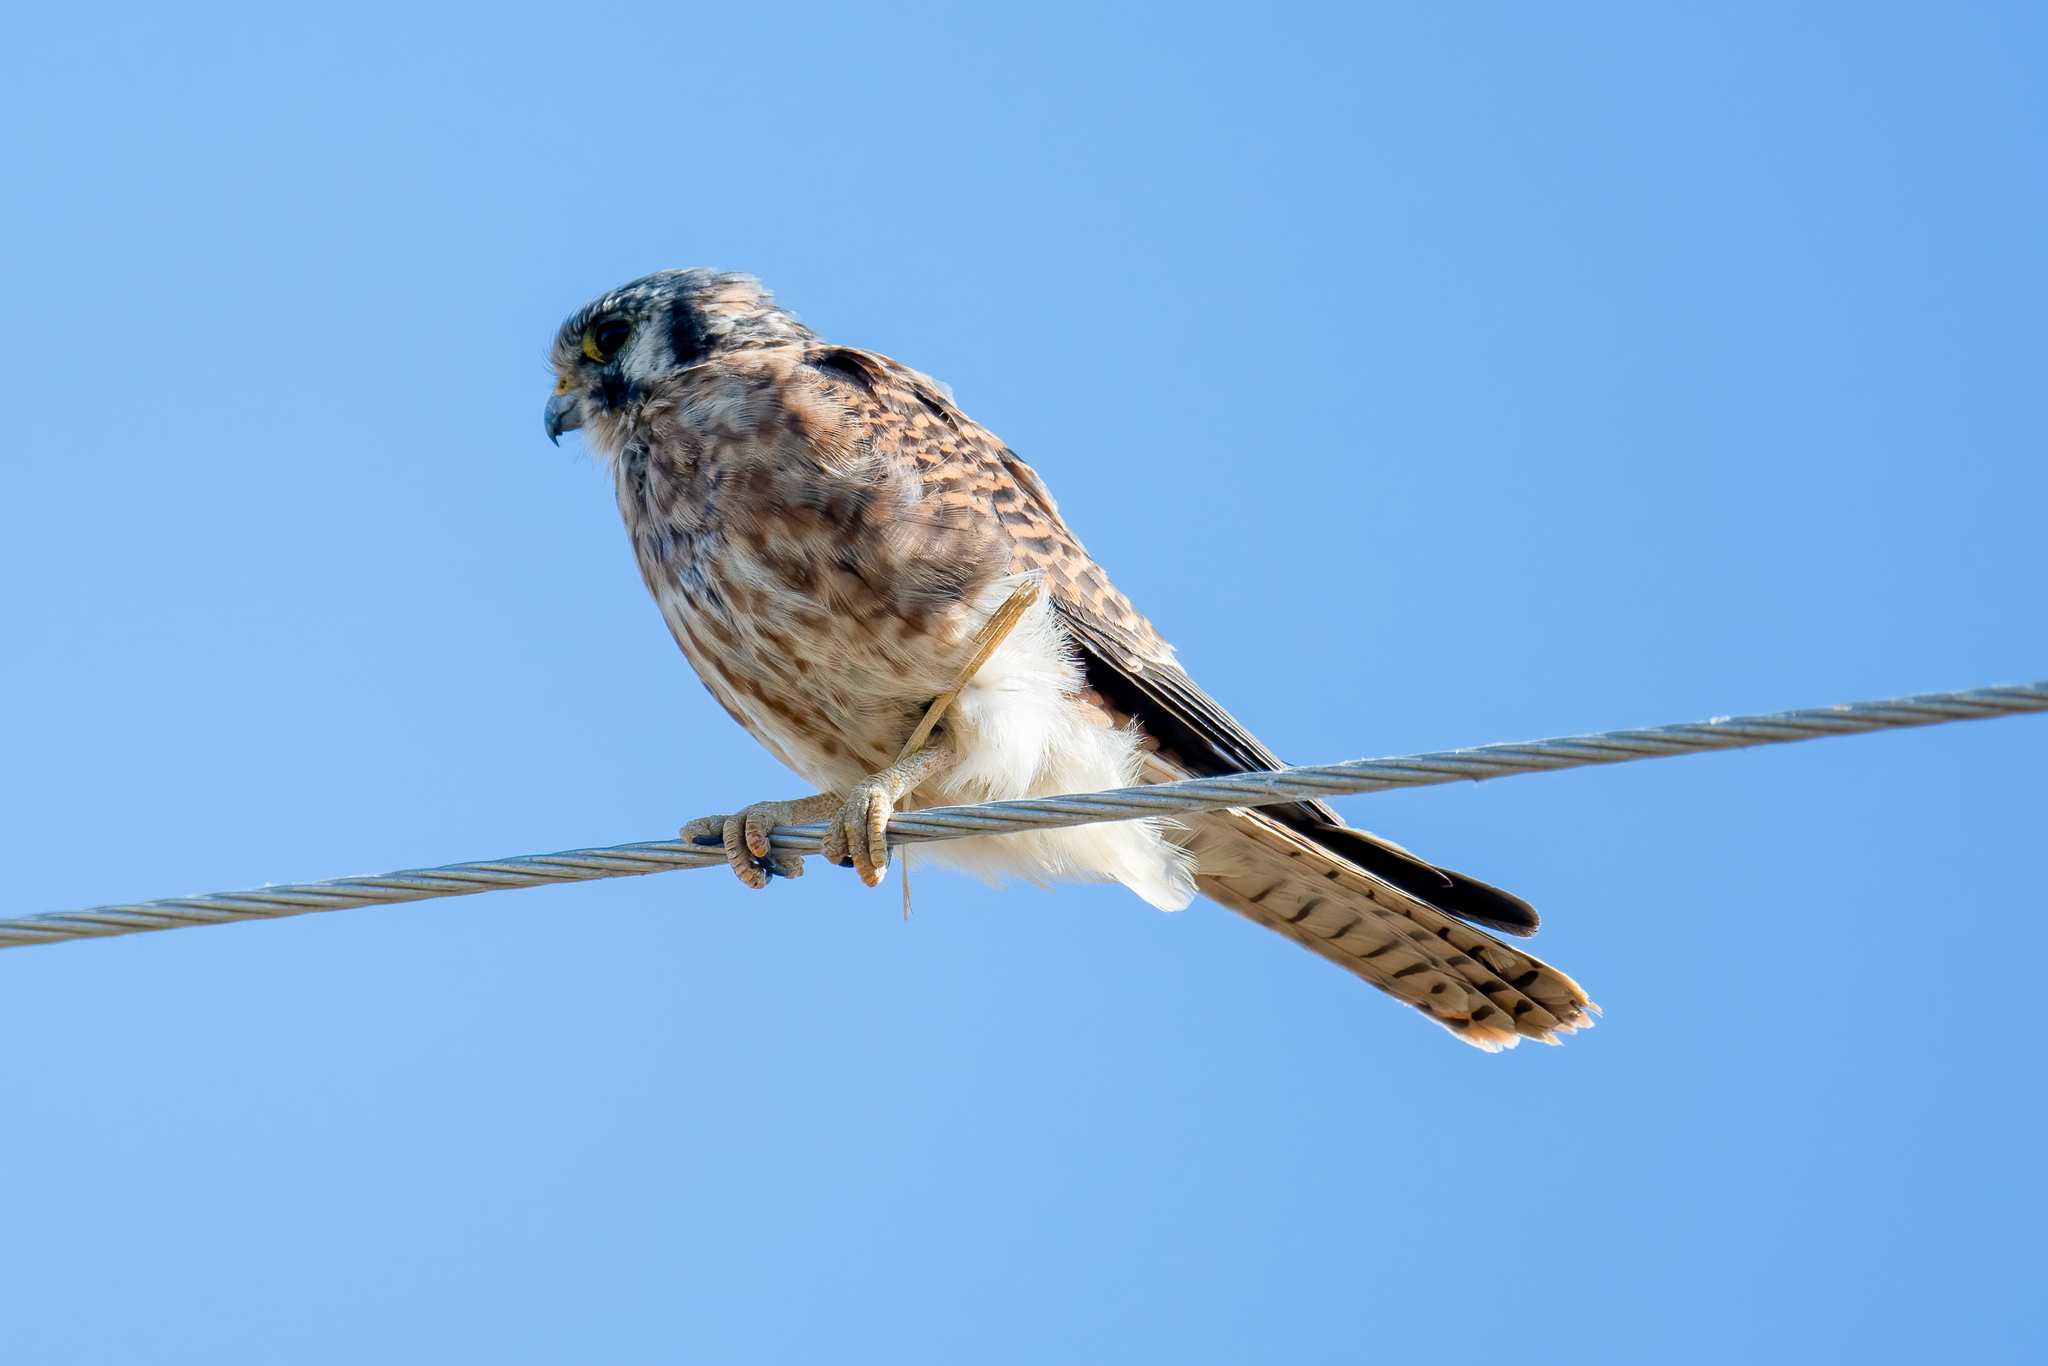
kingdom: Animalia
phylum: Chordata
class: Aves
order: Falconiformes
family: Falconidae
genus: Falco
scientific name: Falco sparverius
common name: American kestrel
